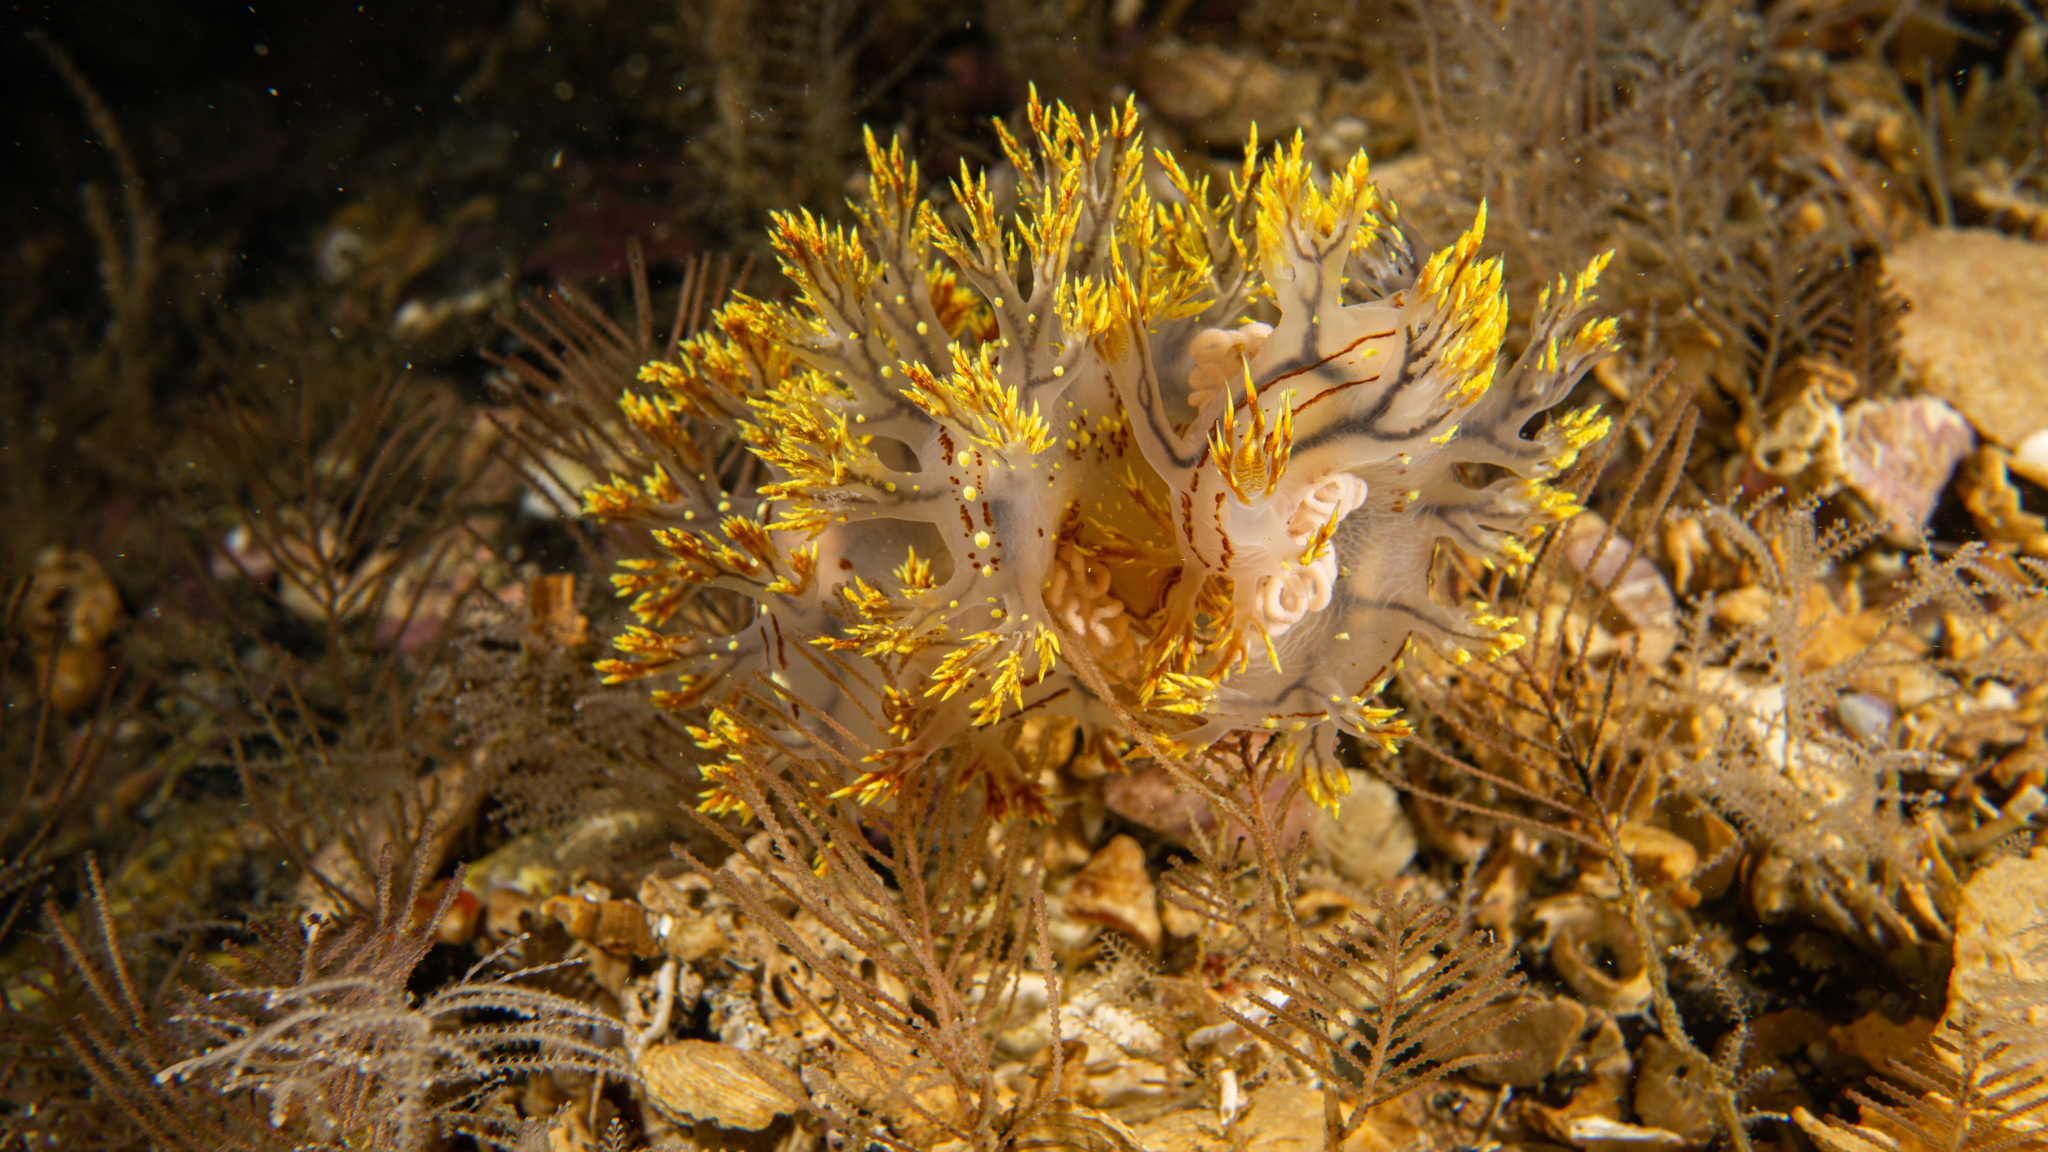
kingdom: Animalia
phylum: Mollusca
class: Gastropoda
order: Nudibranchia
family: Dendronotidae
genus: Dendronotus
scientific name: Dendronotus yrjargul
